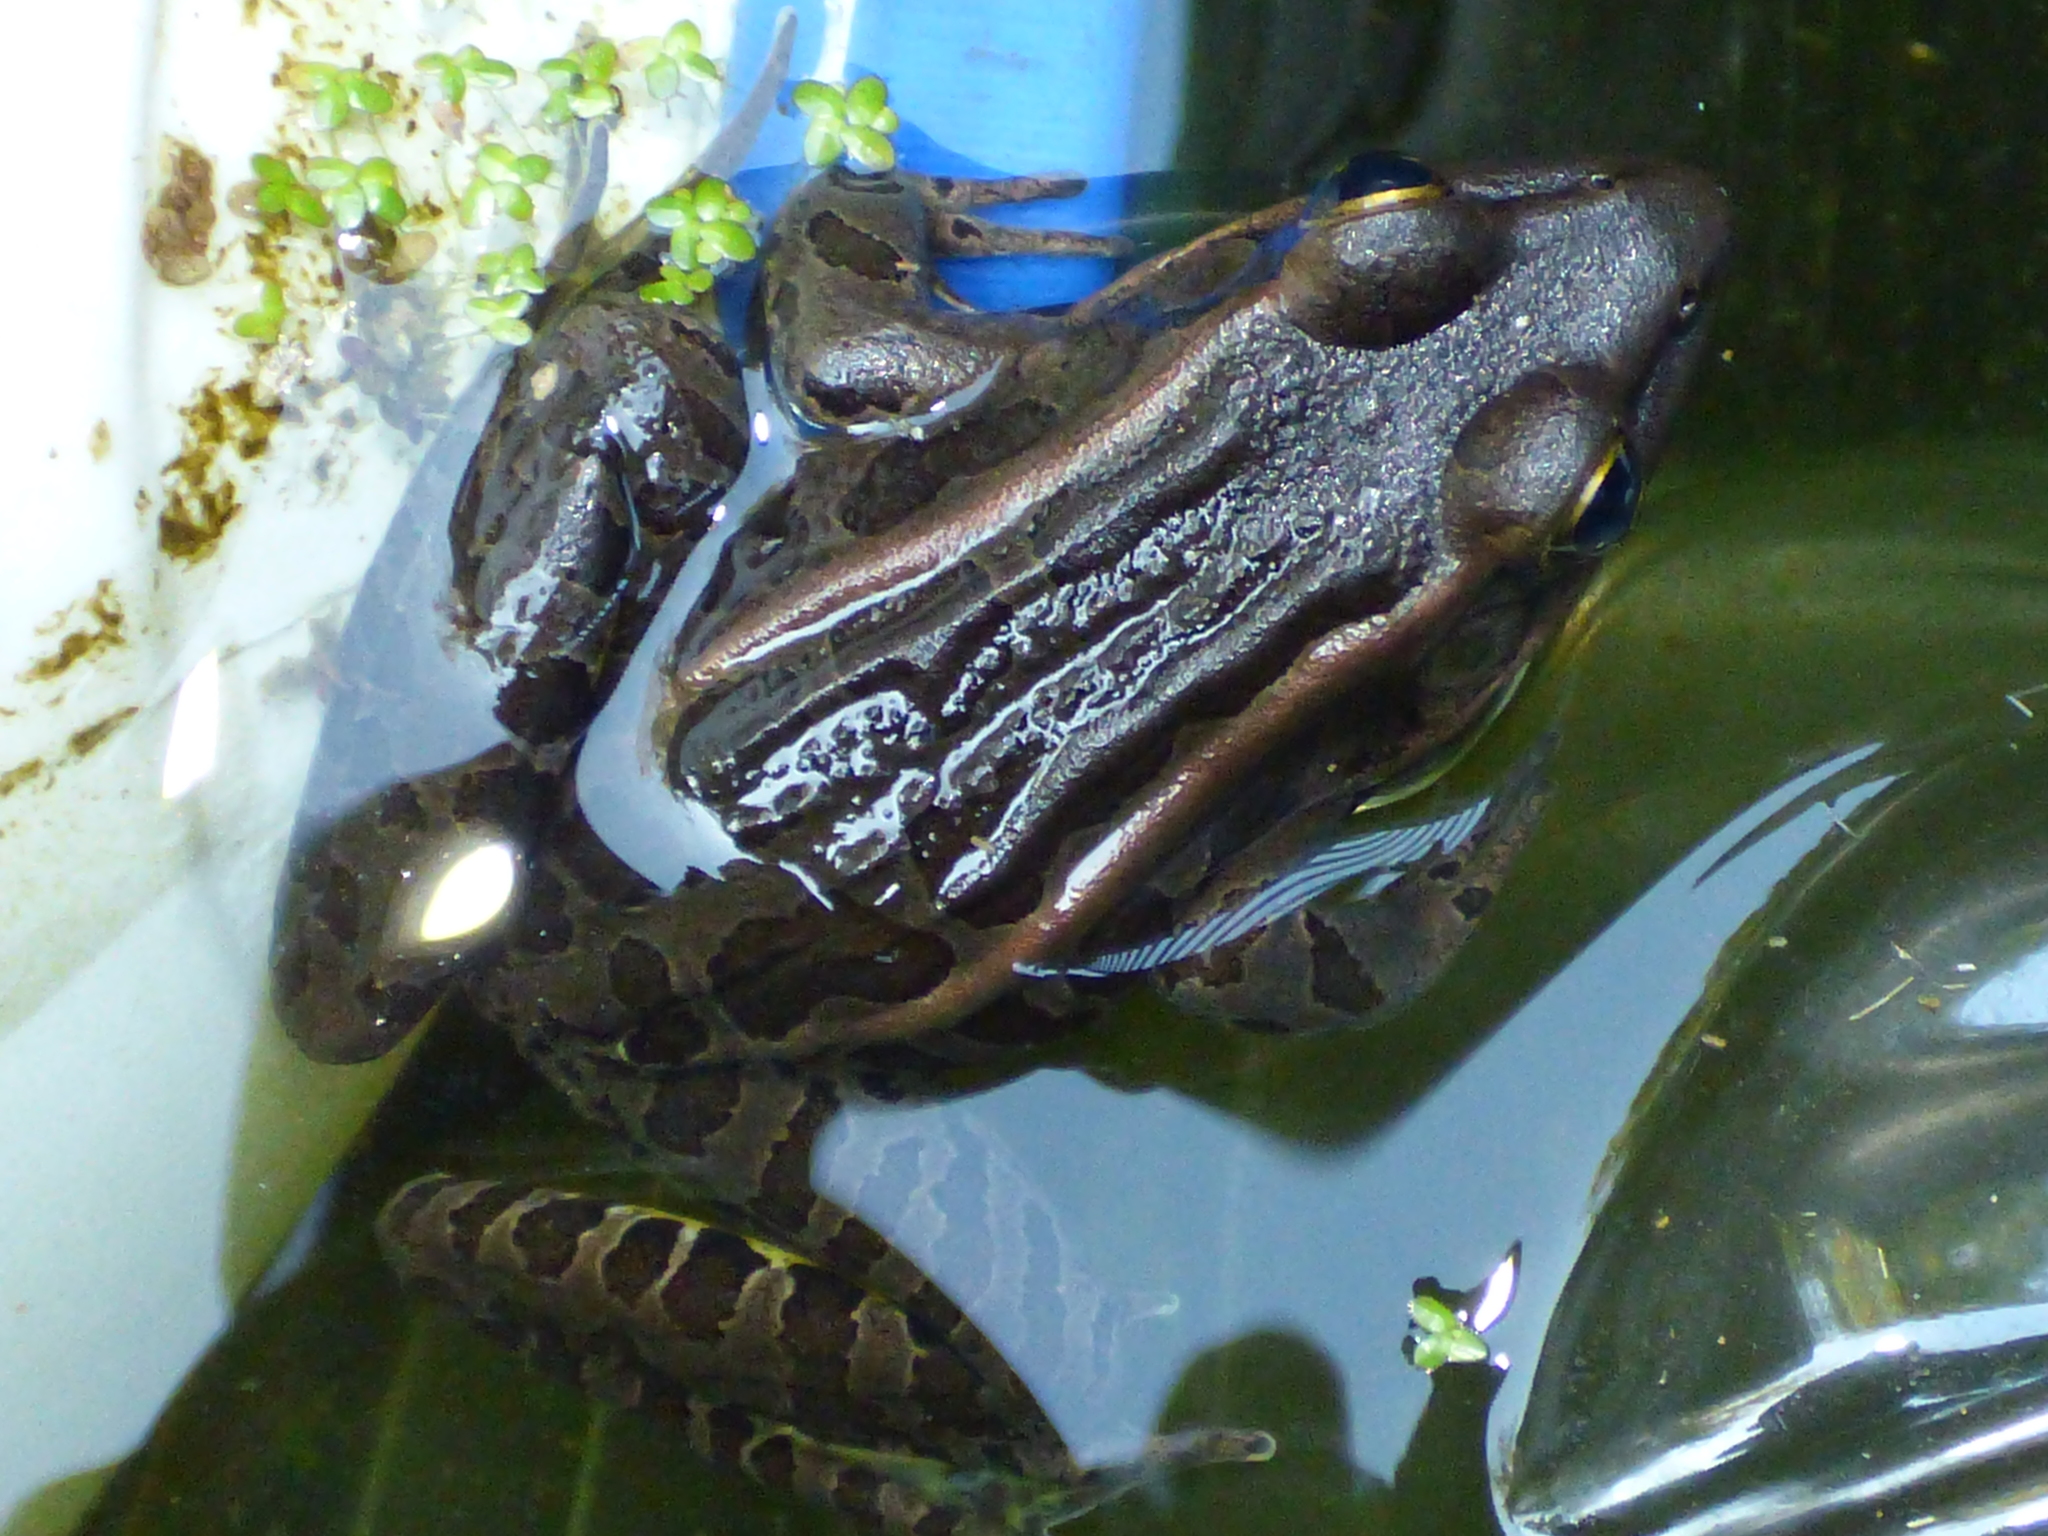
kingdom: Animalia
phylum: Chordata
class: Amphibia
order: Anura
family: Ranidae
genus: Lithobates
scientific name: Lithobates palustris
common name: Pickerel frog
